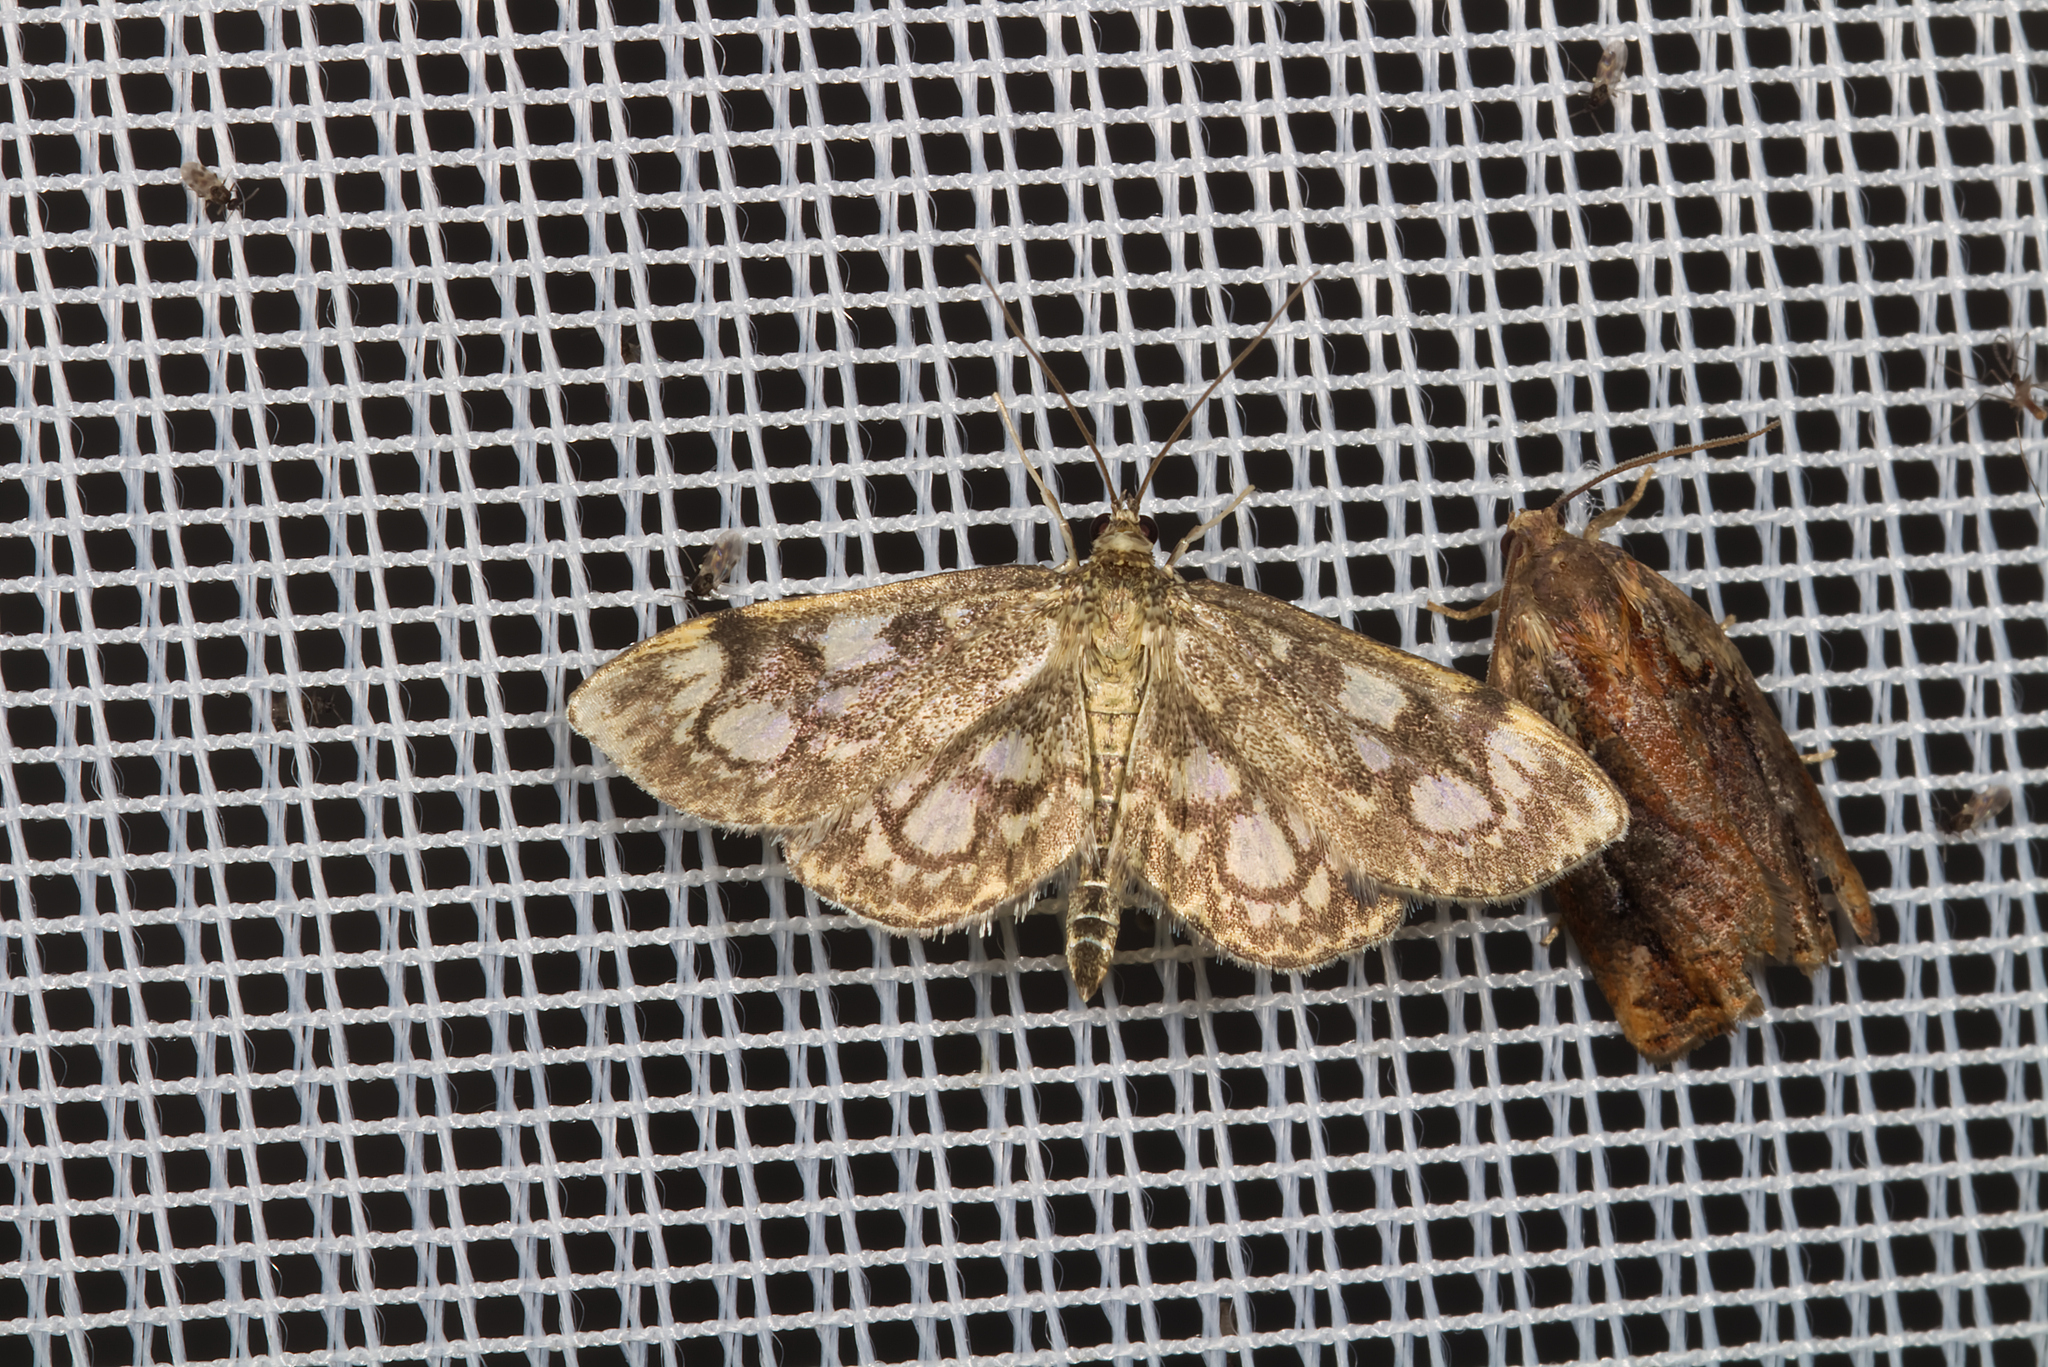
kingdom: Animalia
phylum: Arthropoda
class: Insecta
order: Lepidoptera
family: Crambidae
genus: Anania
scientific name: Anania coronata
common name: Elder pearl
